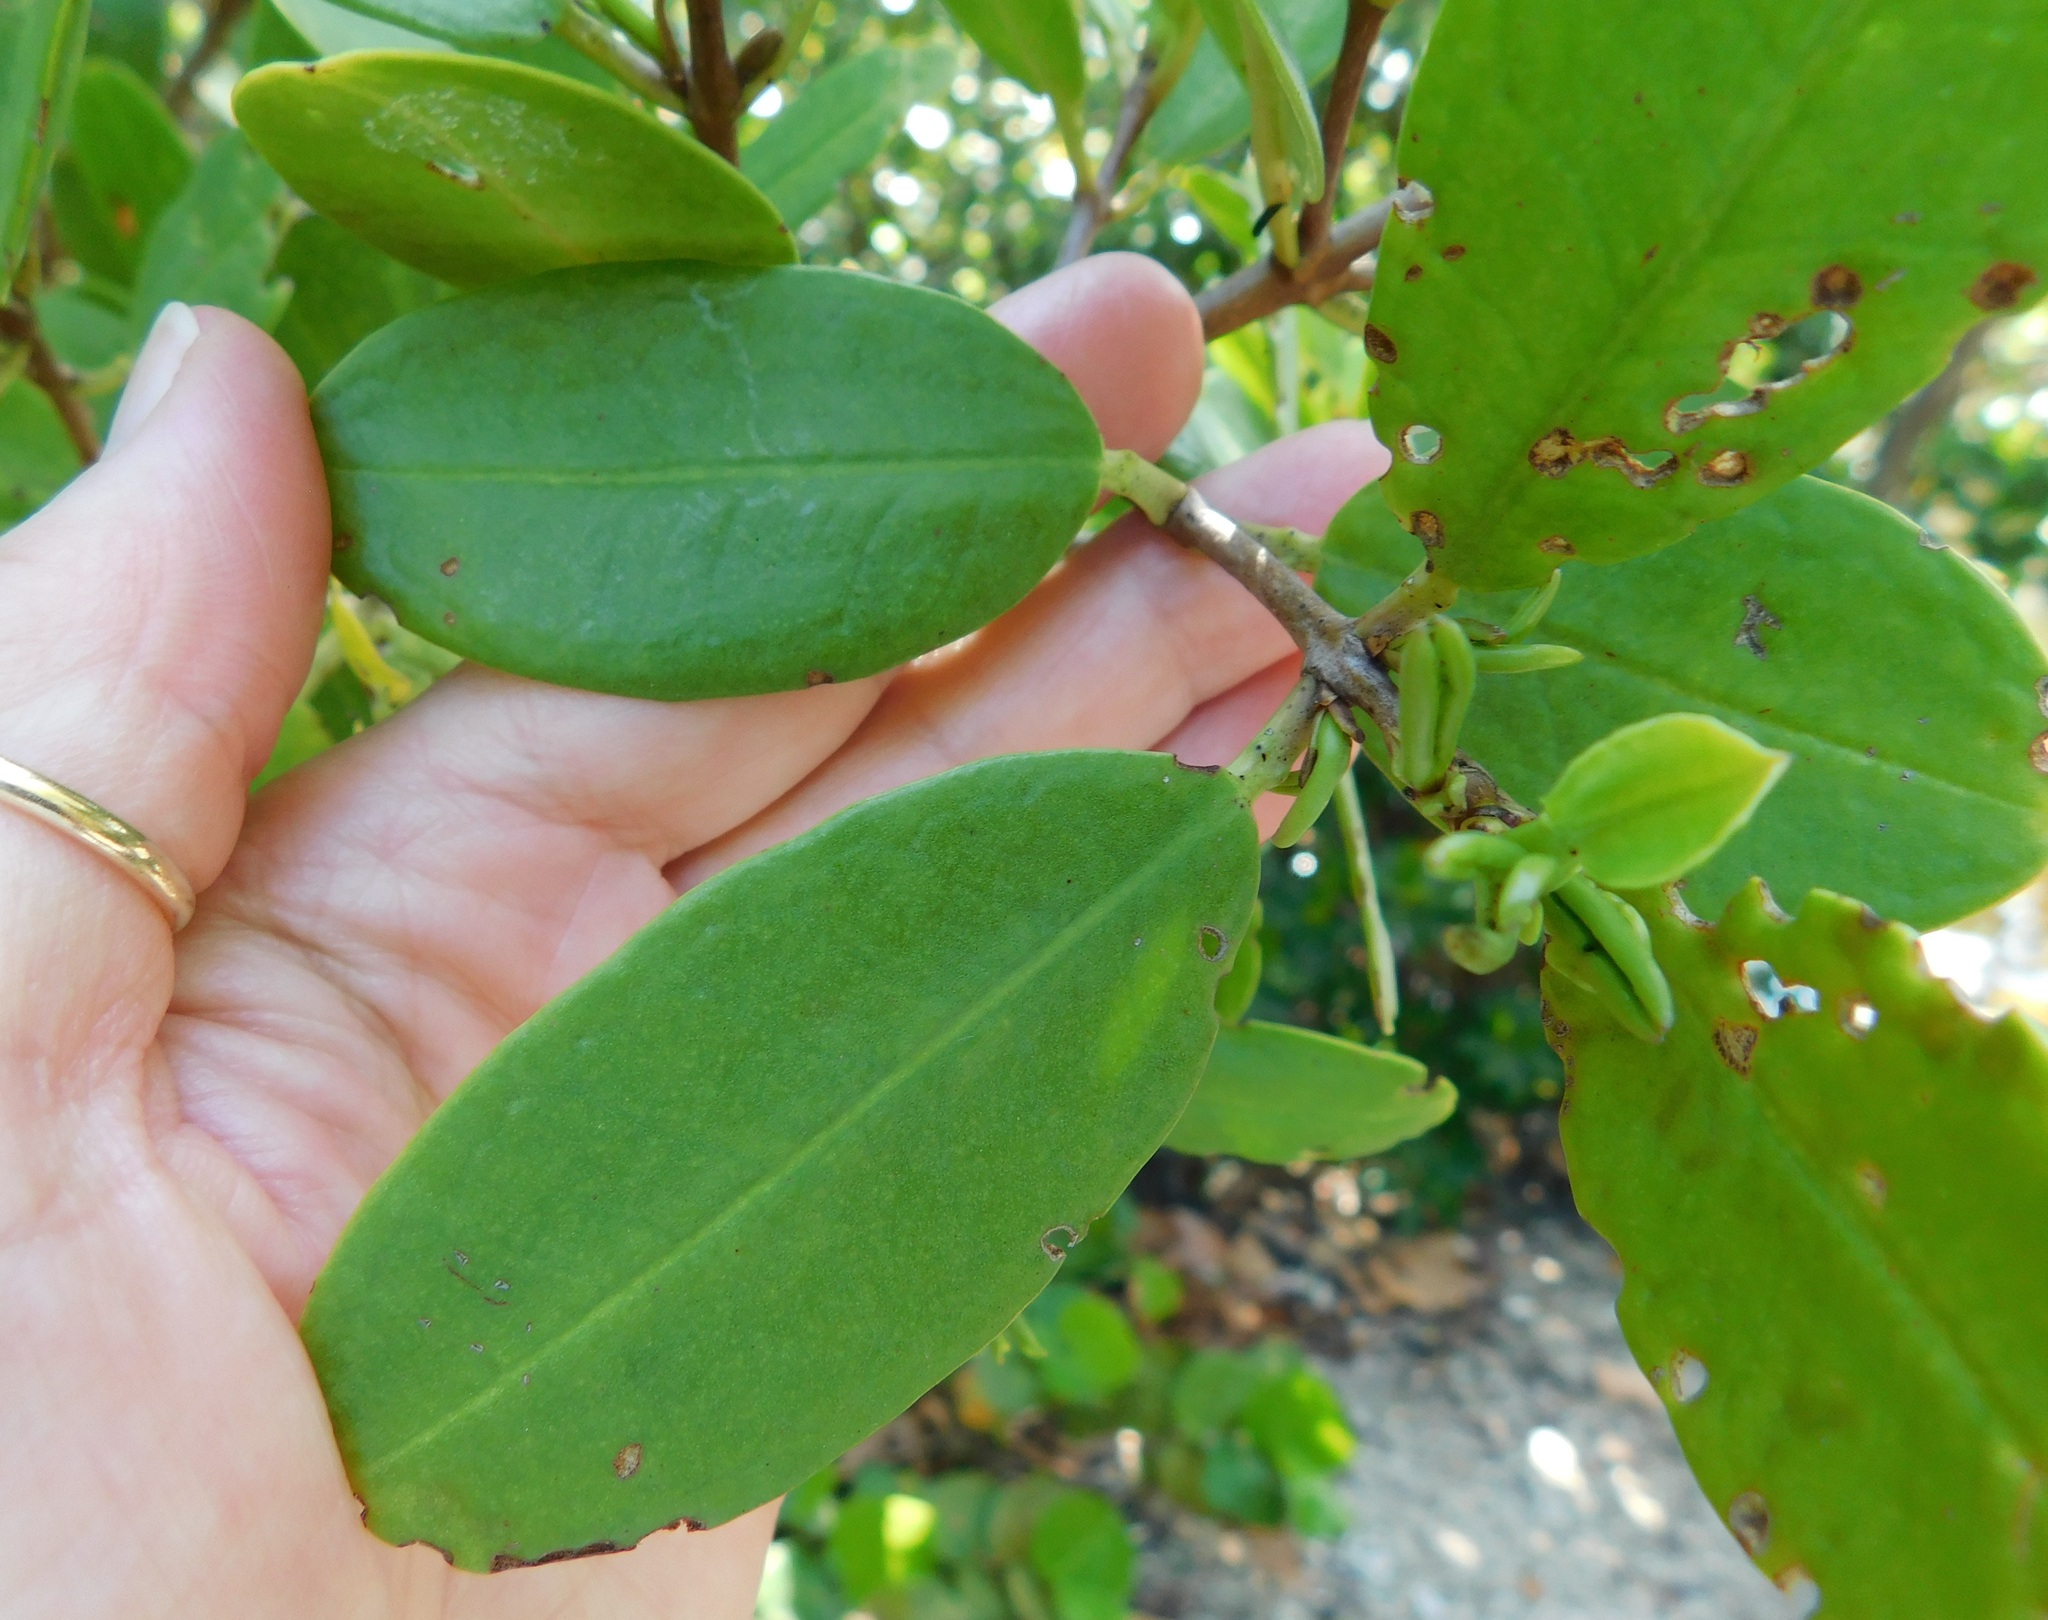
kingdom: Plantae
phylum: Tracheophyta
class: Magnoliopsida
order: Myrtales
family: Combretaceae
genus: Laguncularia
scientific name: Laguncularia racemosa
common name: White mangrove
